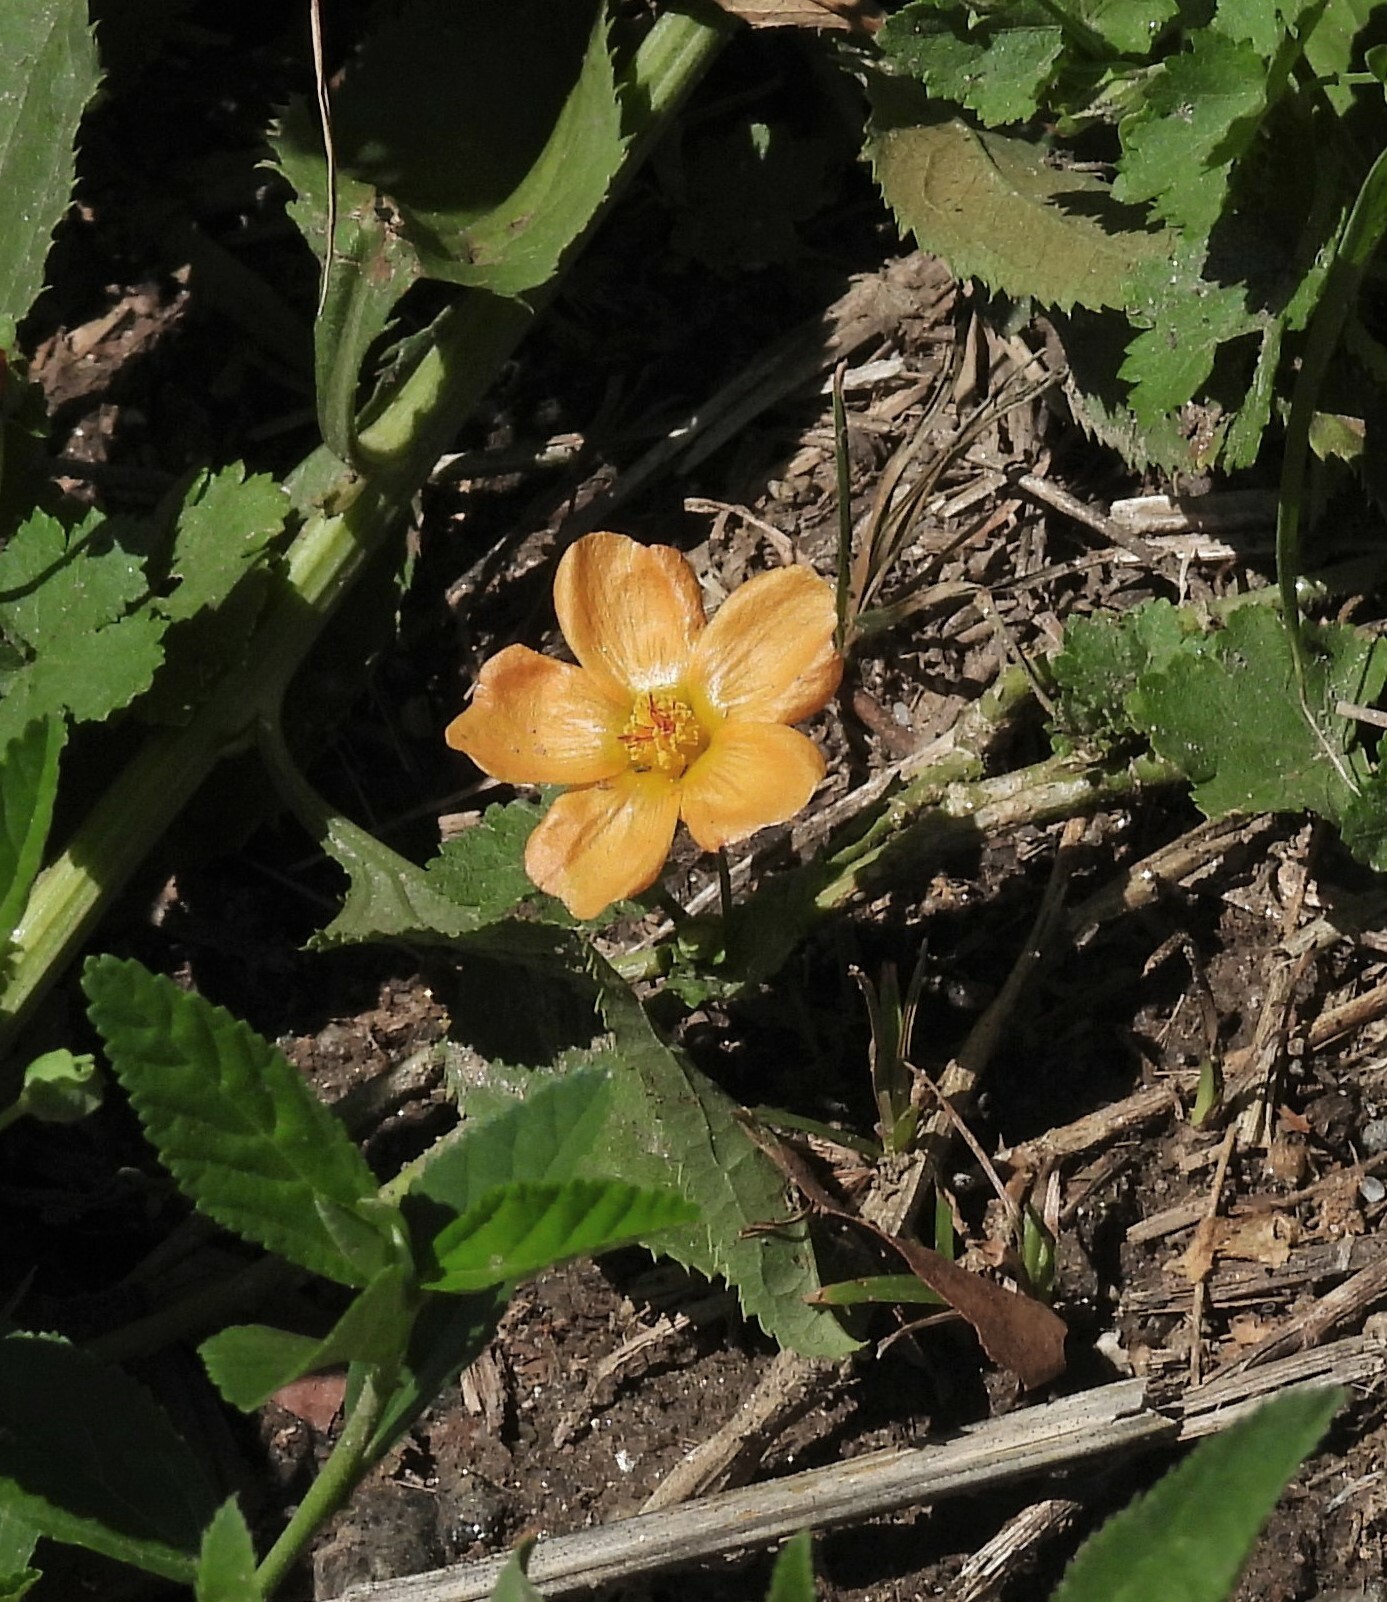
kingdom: Plantae
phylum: Tracheophyta
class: Magnoliopsida
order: Malvales
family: Malvaceae
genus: Modiolastrum
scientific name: Modiolastrum malvifolium
